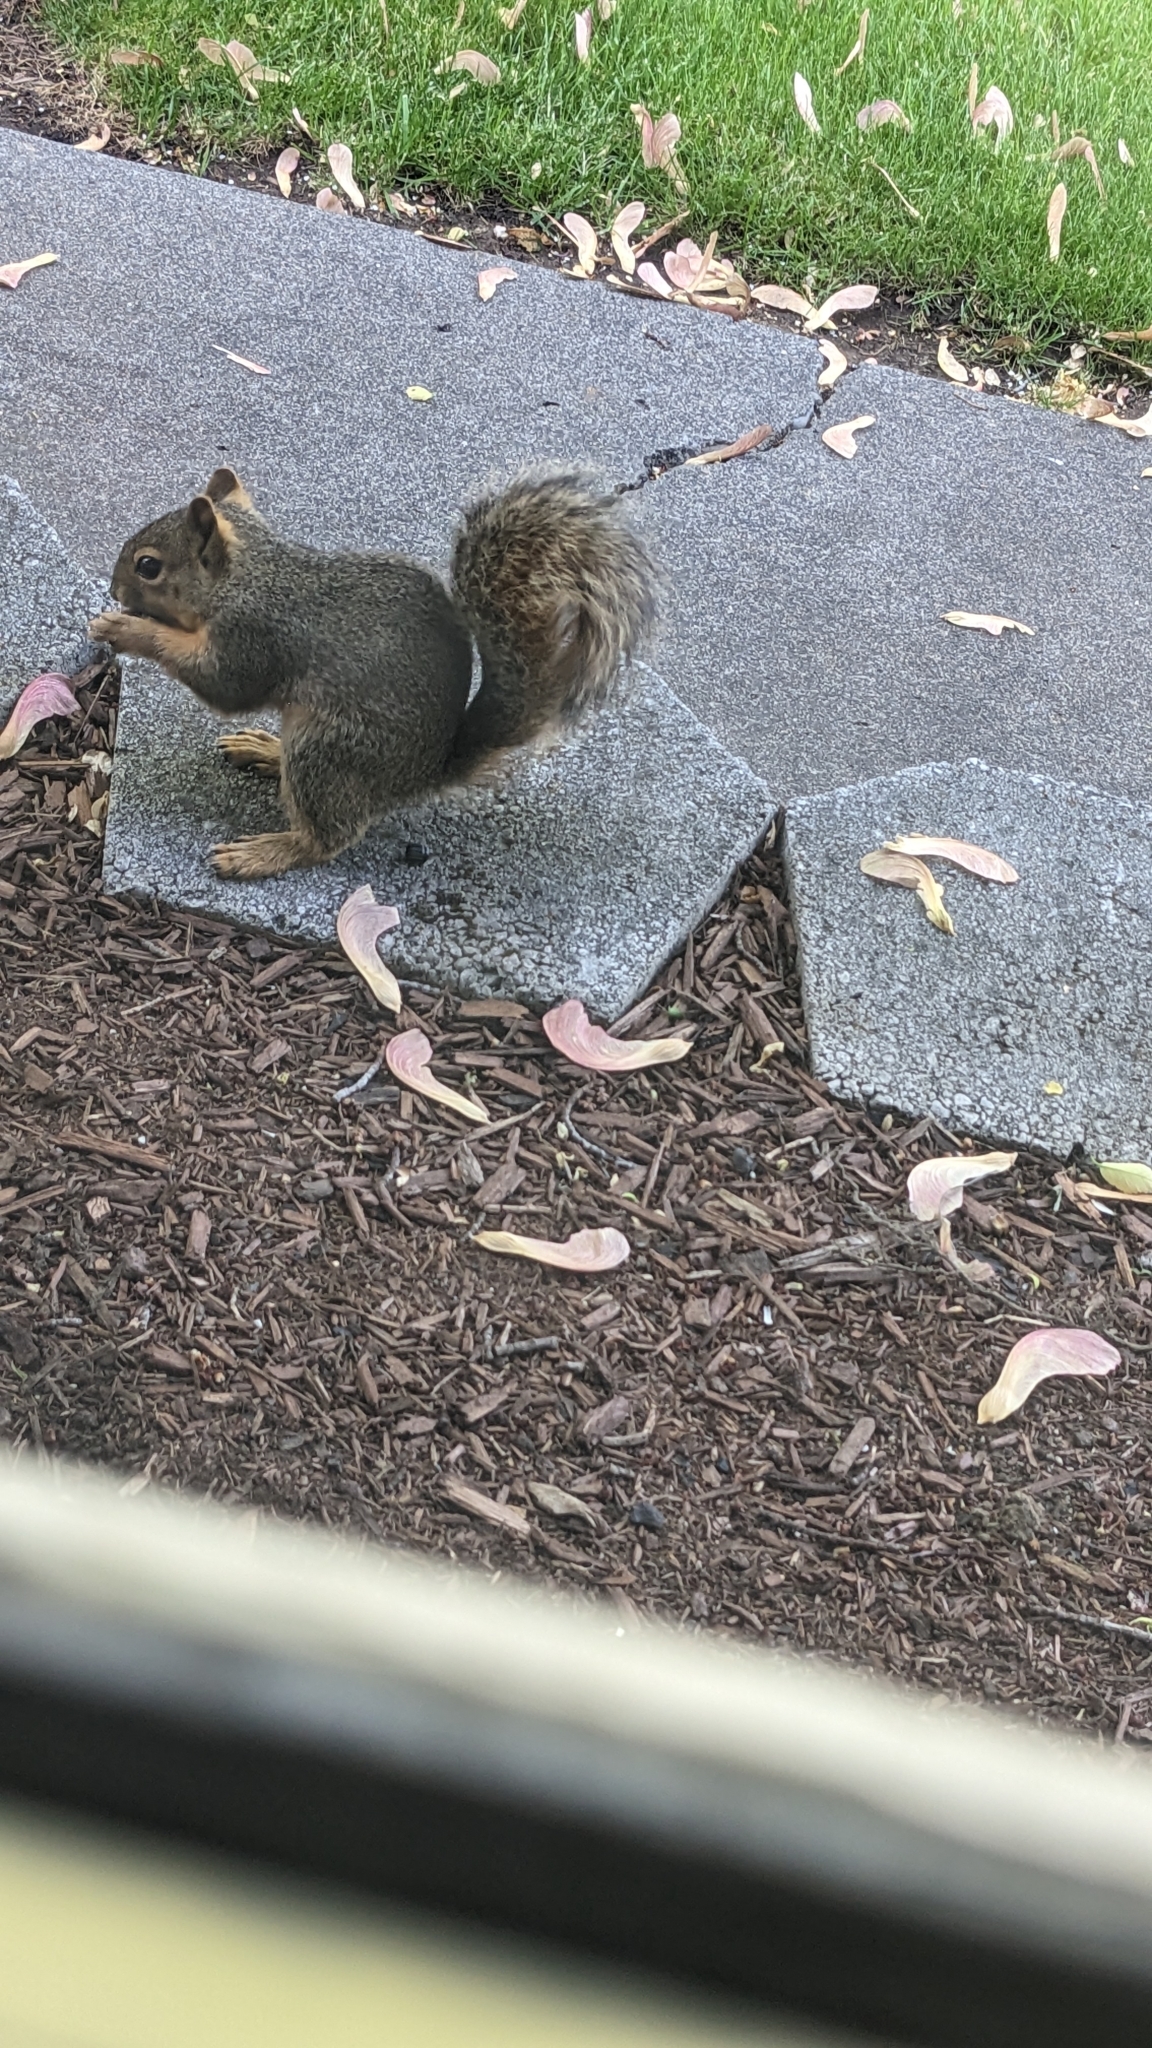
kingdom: Animalia
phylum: Chordata
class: Mammalia
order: Rodentia
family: Sciuridae
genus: Sciurus
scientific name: Sciurus niger
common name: Fox squirrel
